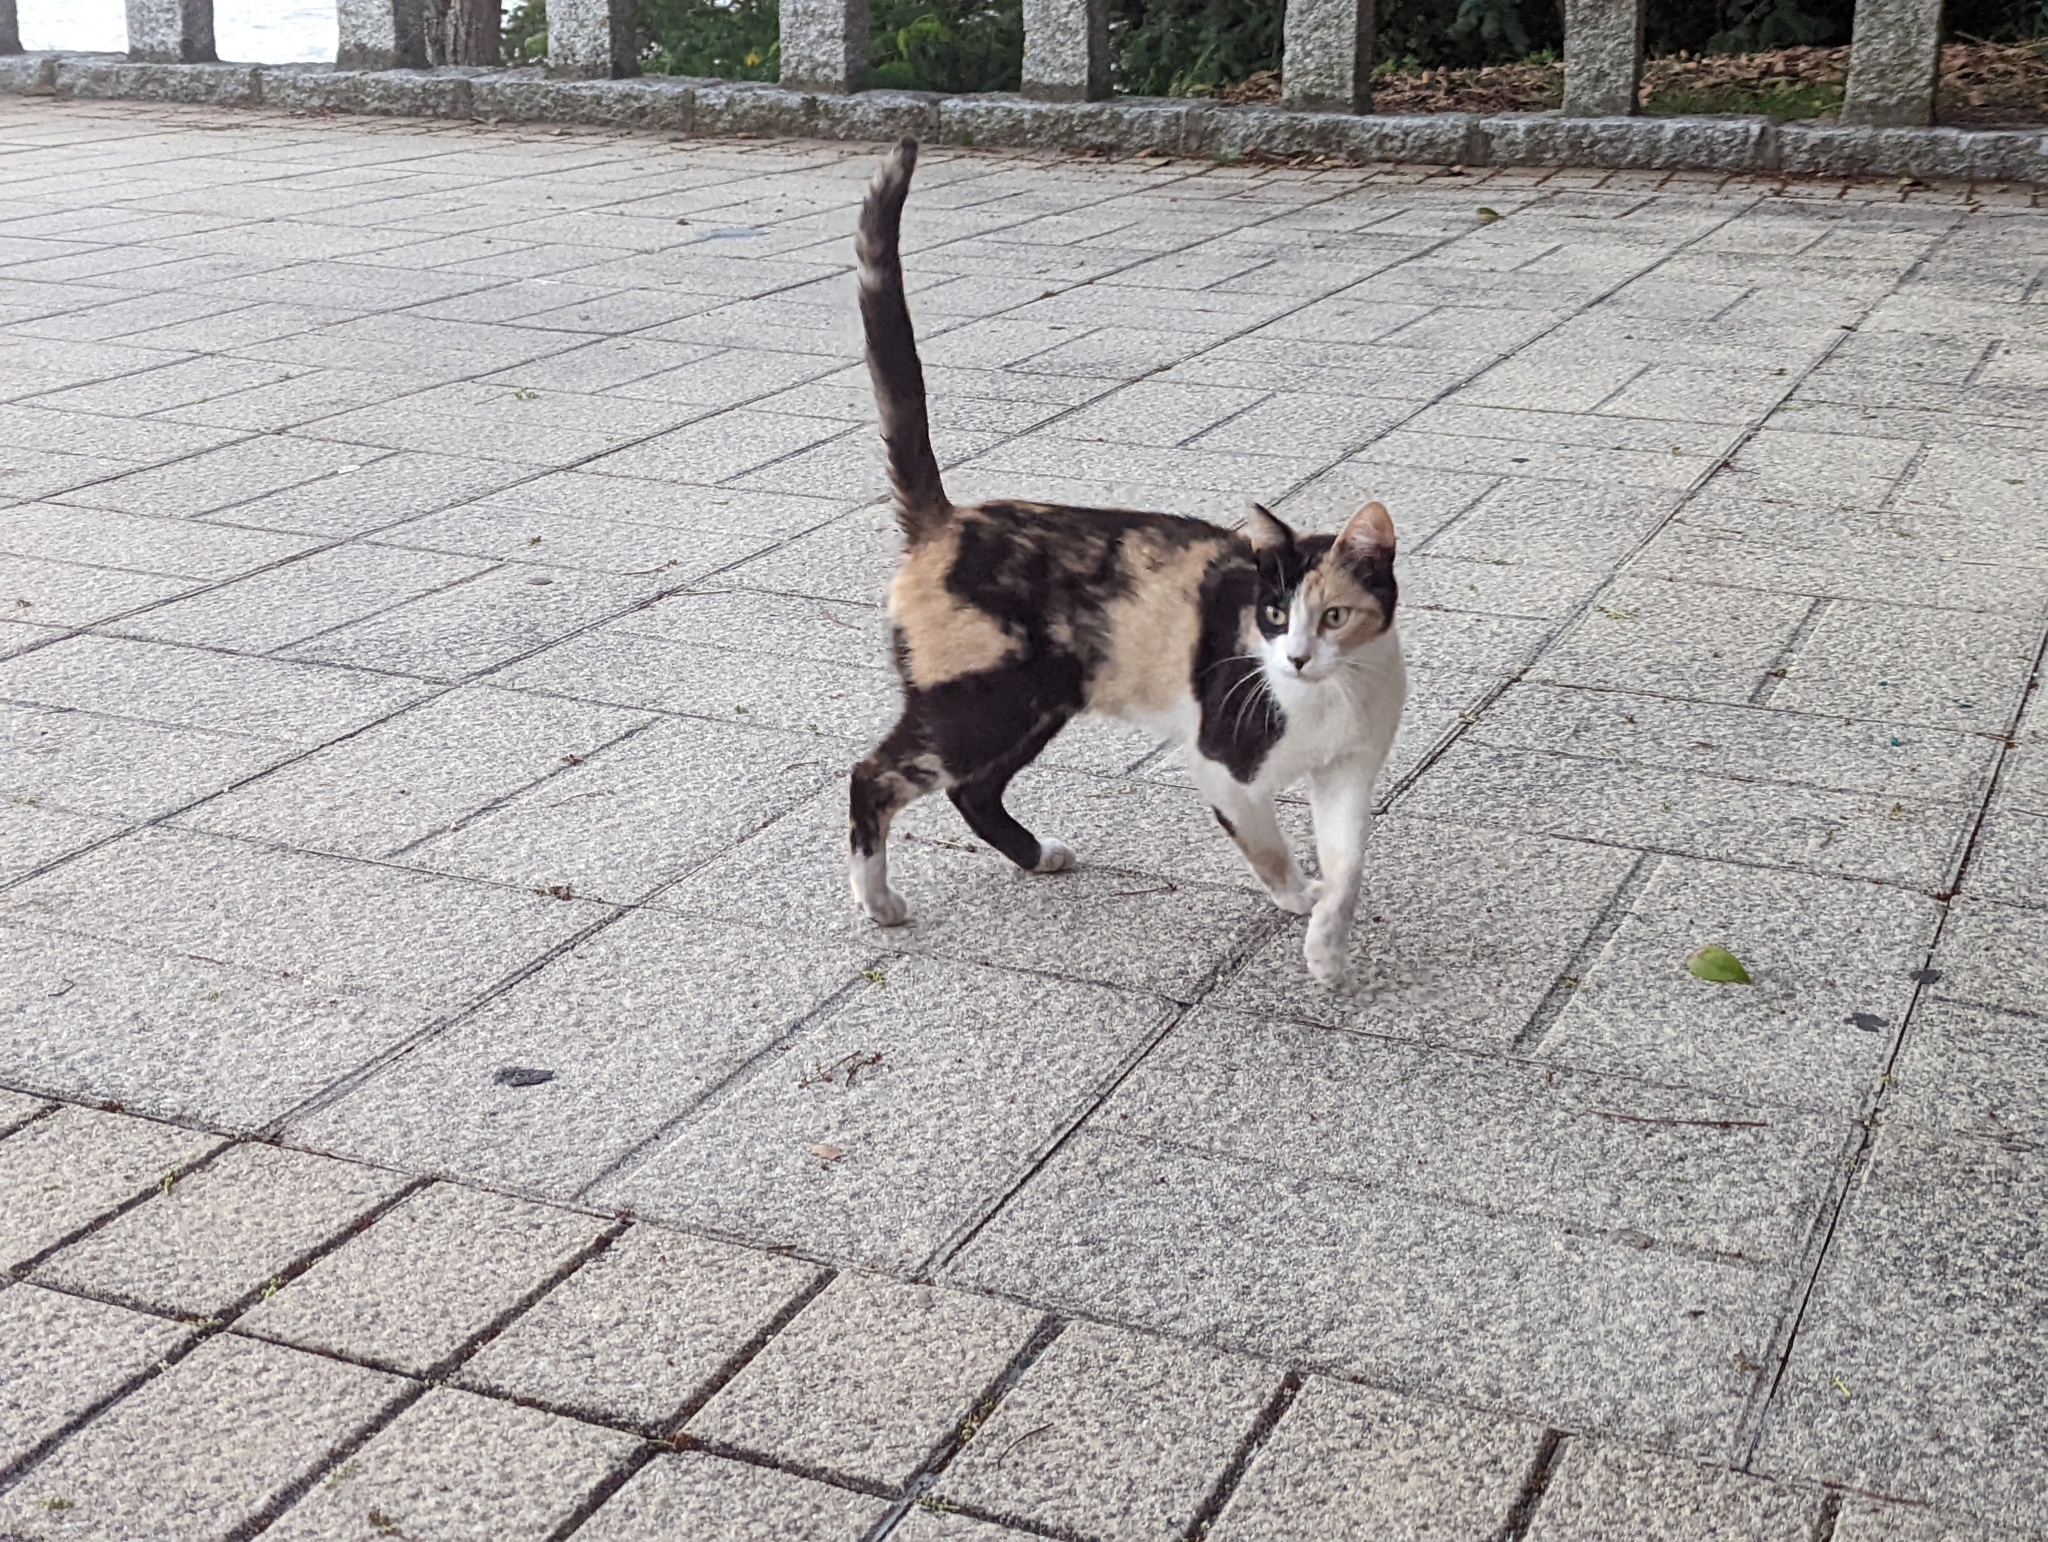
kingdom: Animalia
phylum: Chordata
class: Mammalia
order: Carnivora
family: Felidae
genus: Felis
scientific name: Felis catus
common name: Domestic cat
